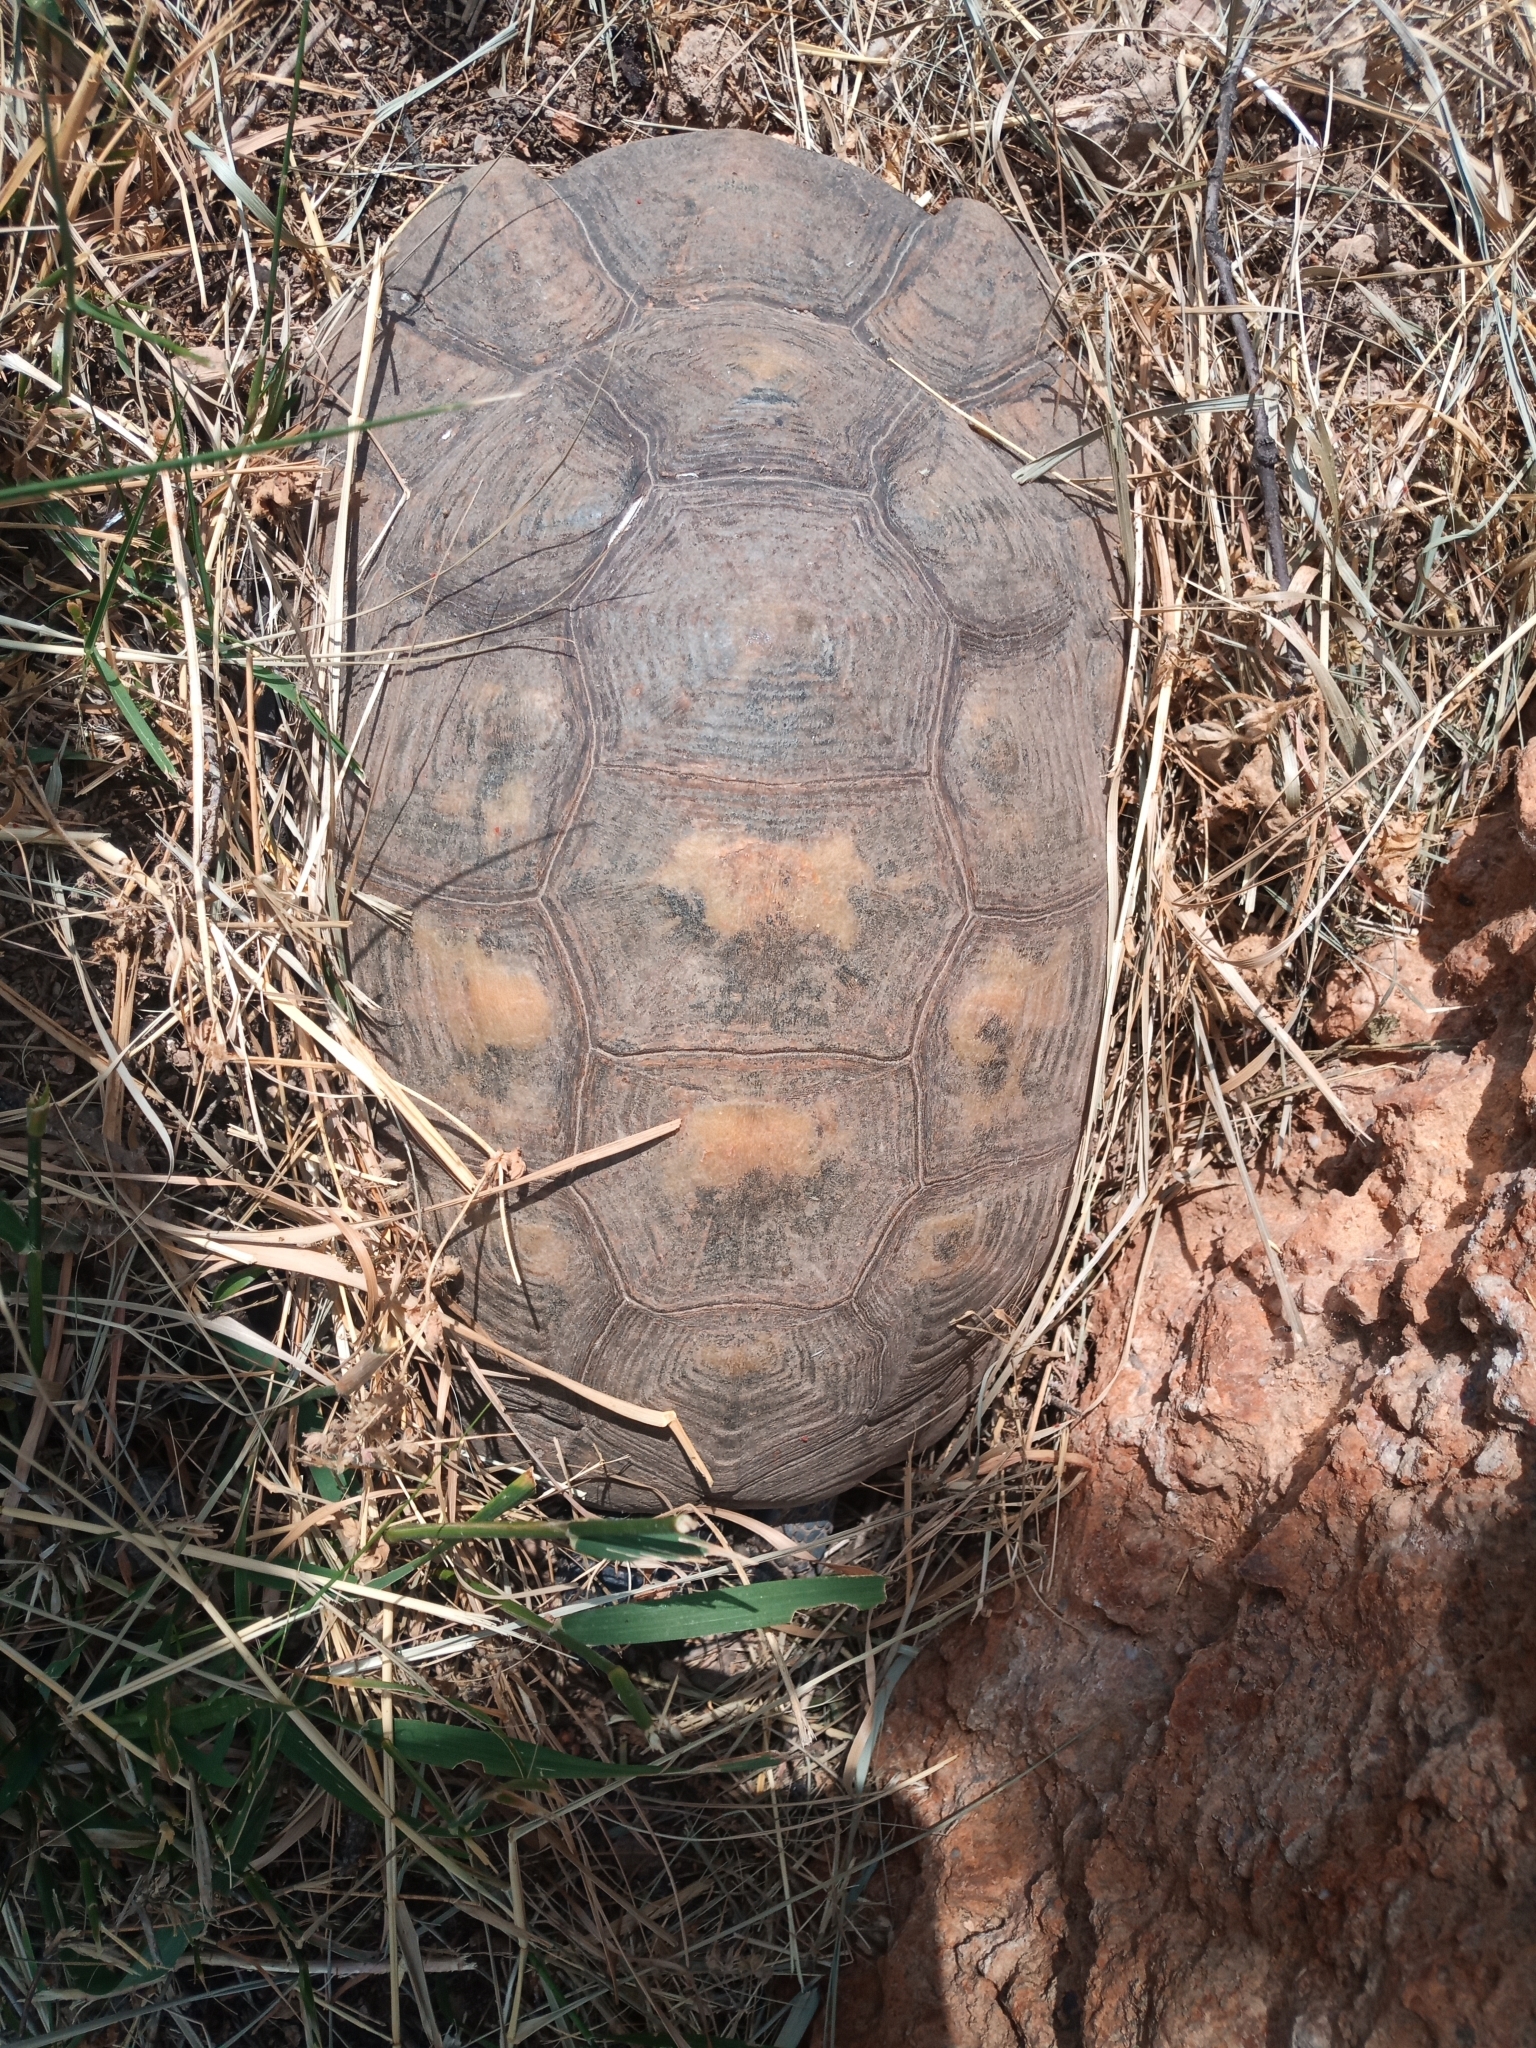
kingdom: Animalia
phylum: Chordata
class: Testudines
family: Testudinidae
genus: Testudo
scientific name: Testudo marginata
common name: Marginated tortoise
